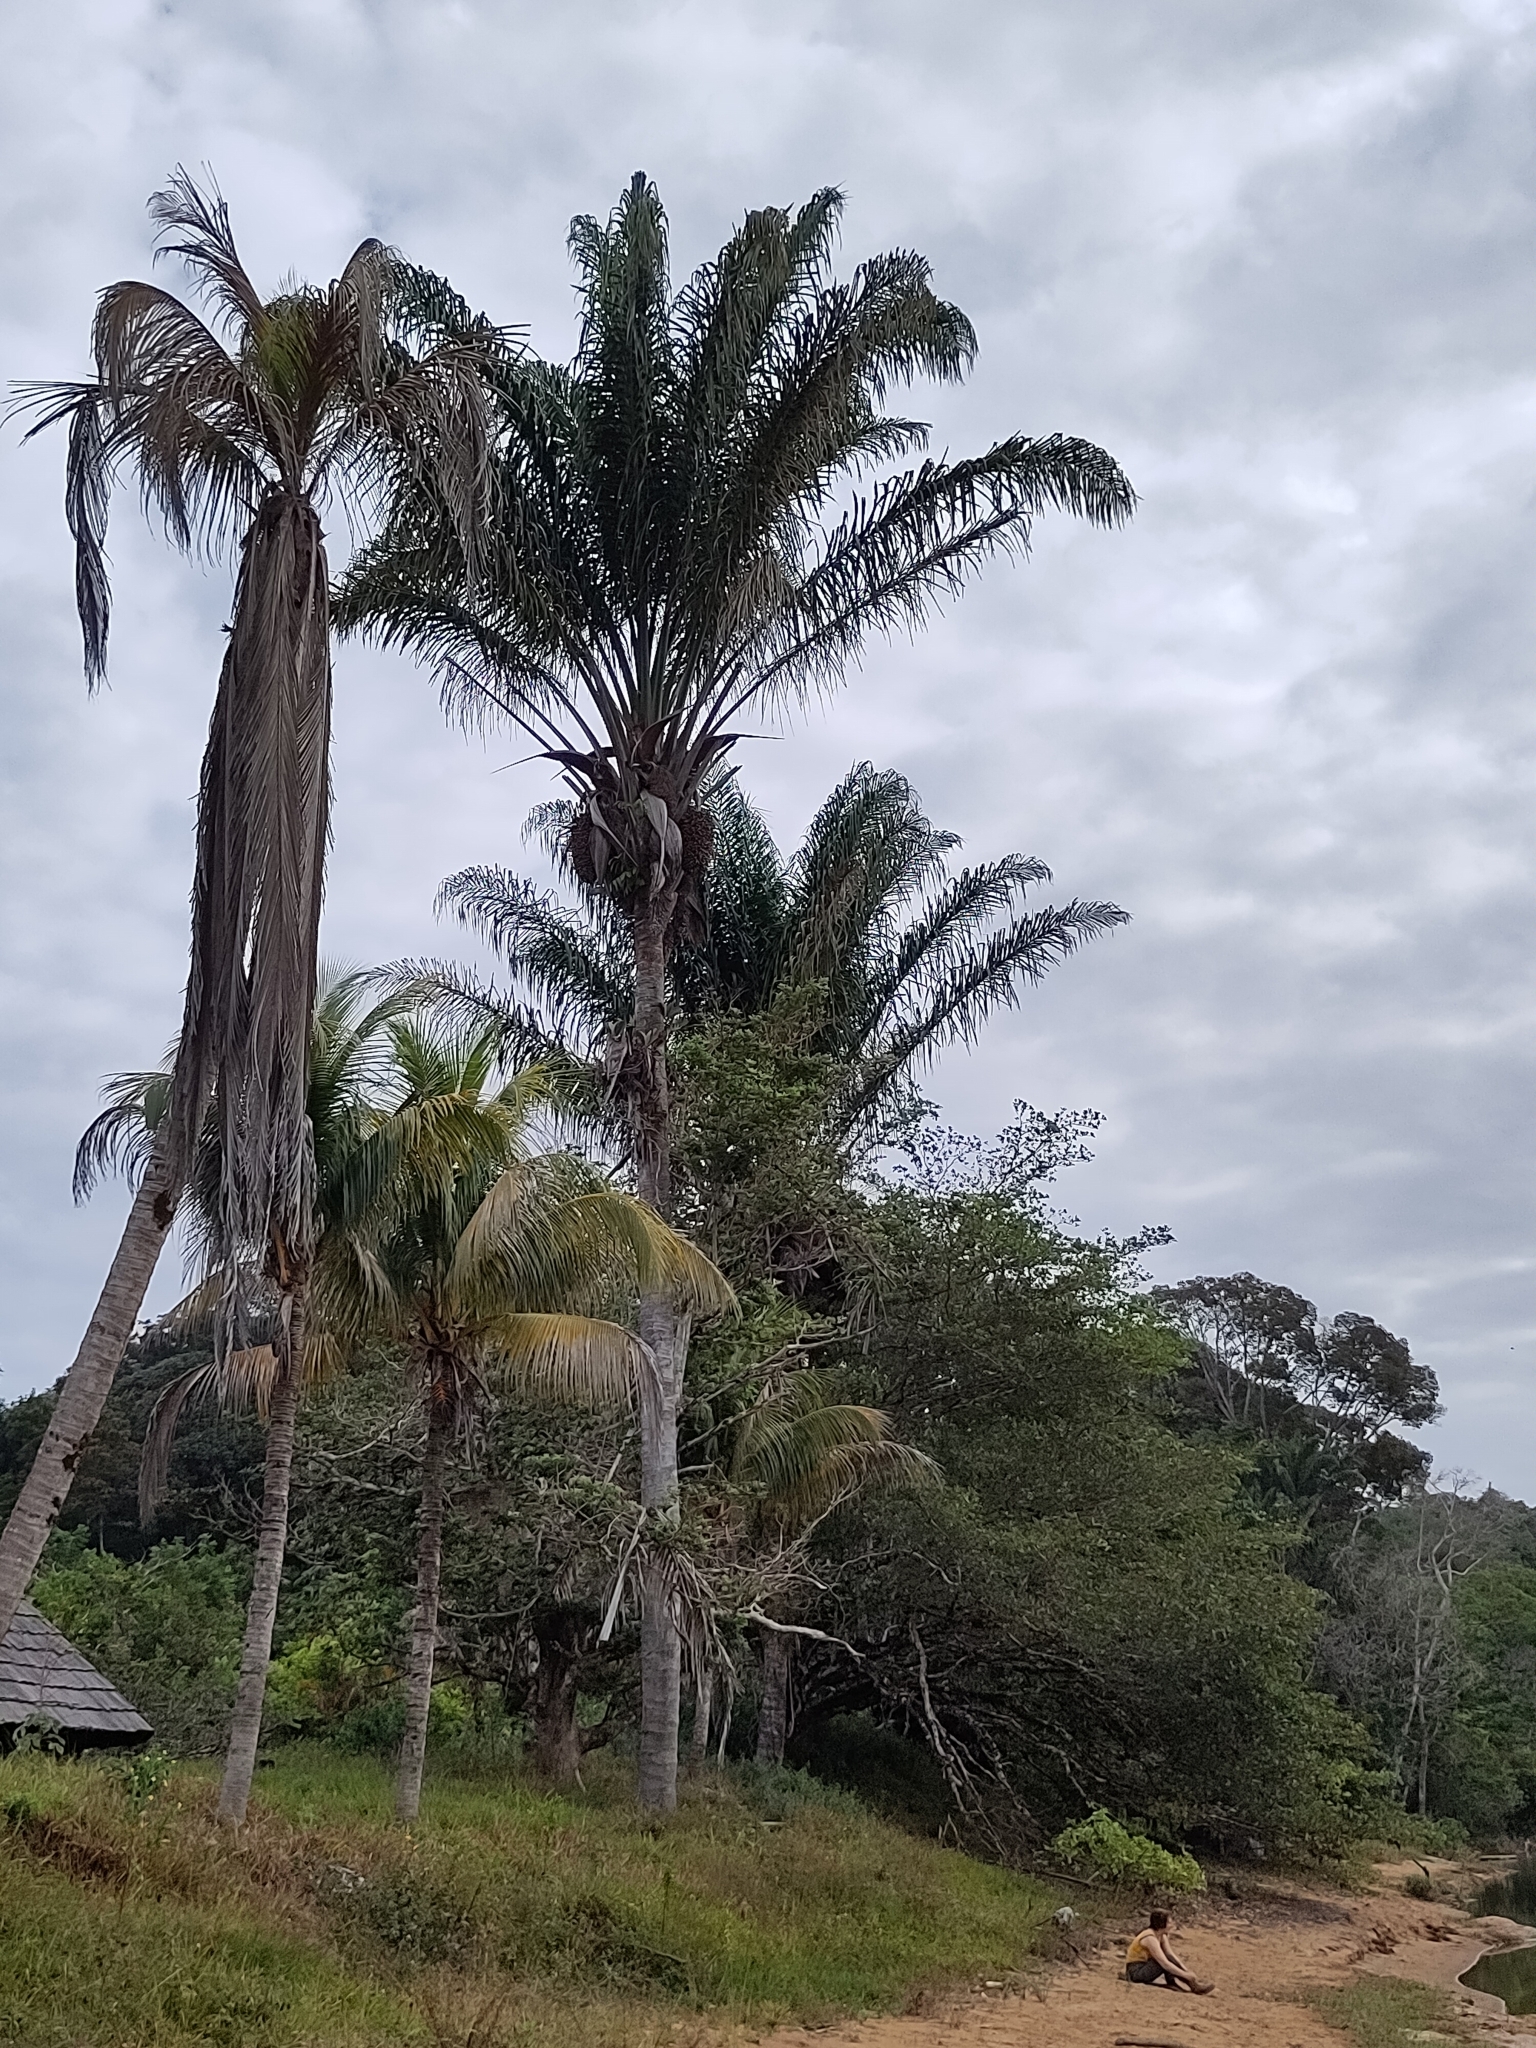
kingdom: Plantae
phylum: Tracheophyta
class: Liliopsida
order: Arecales
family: Arecaceae
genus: Attalea
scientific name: Attalea maripa
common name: Maripa palm
